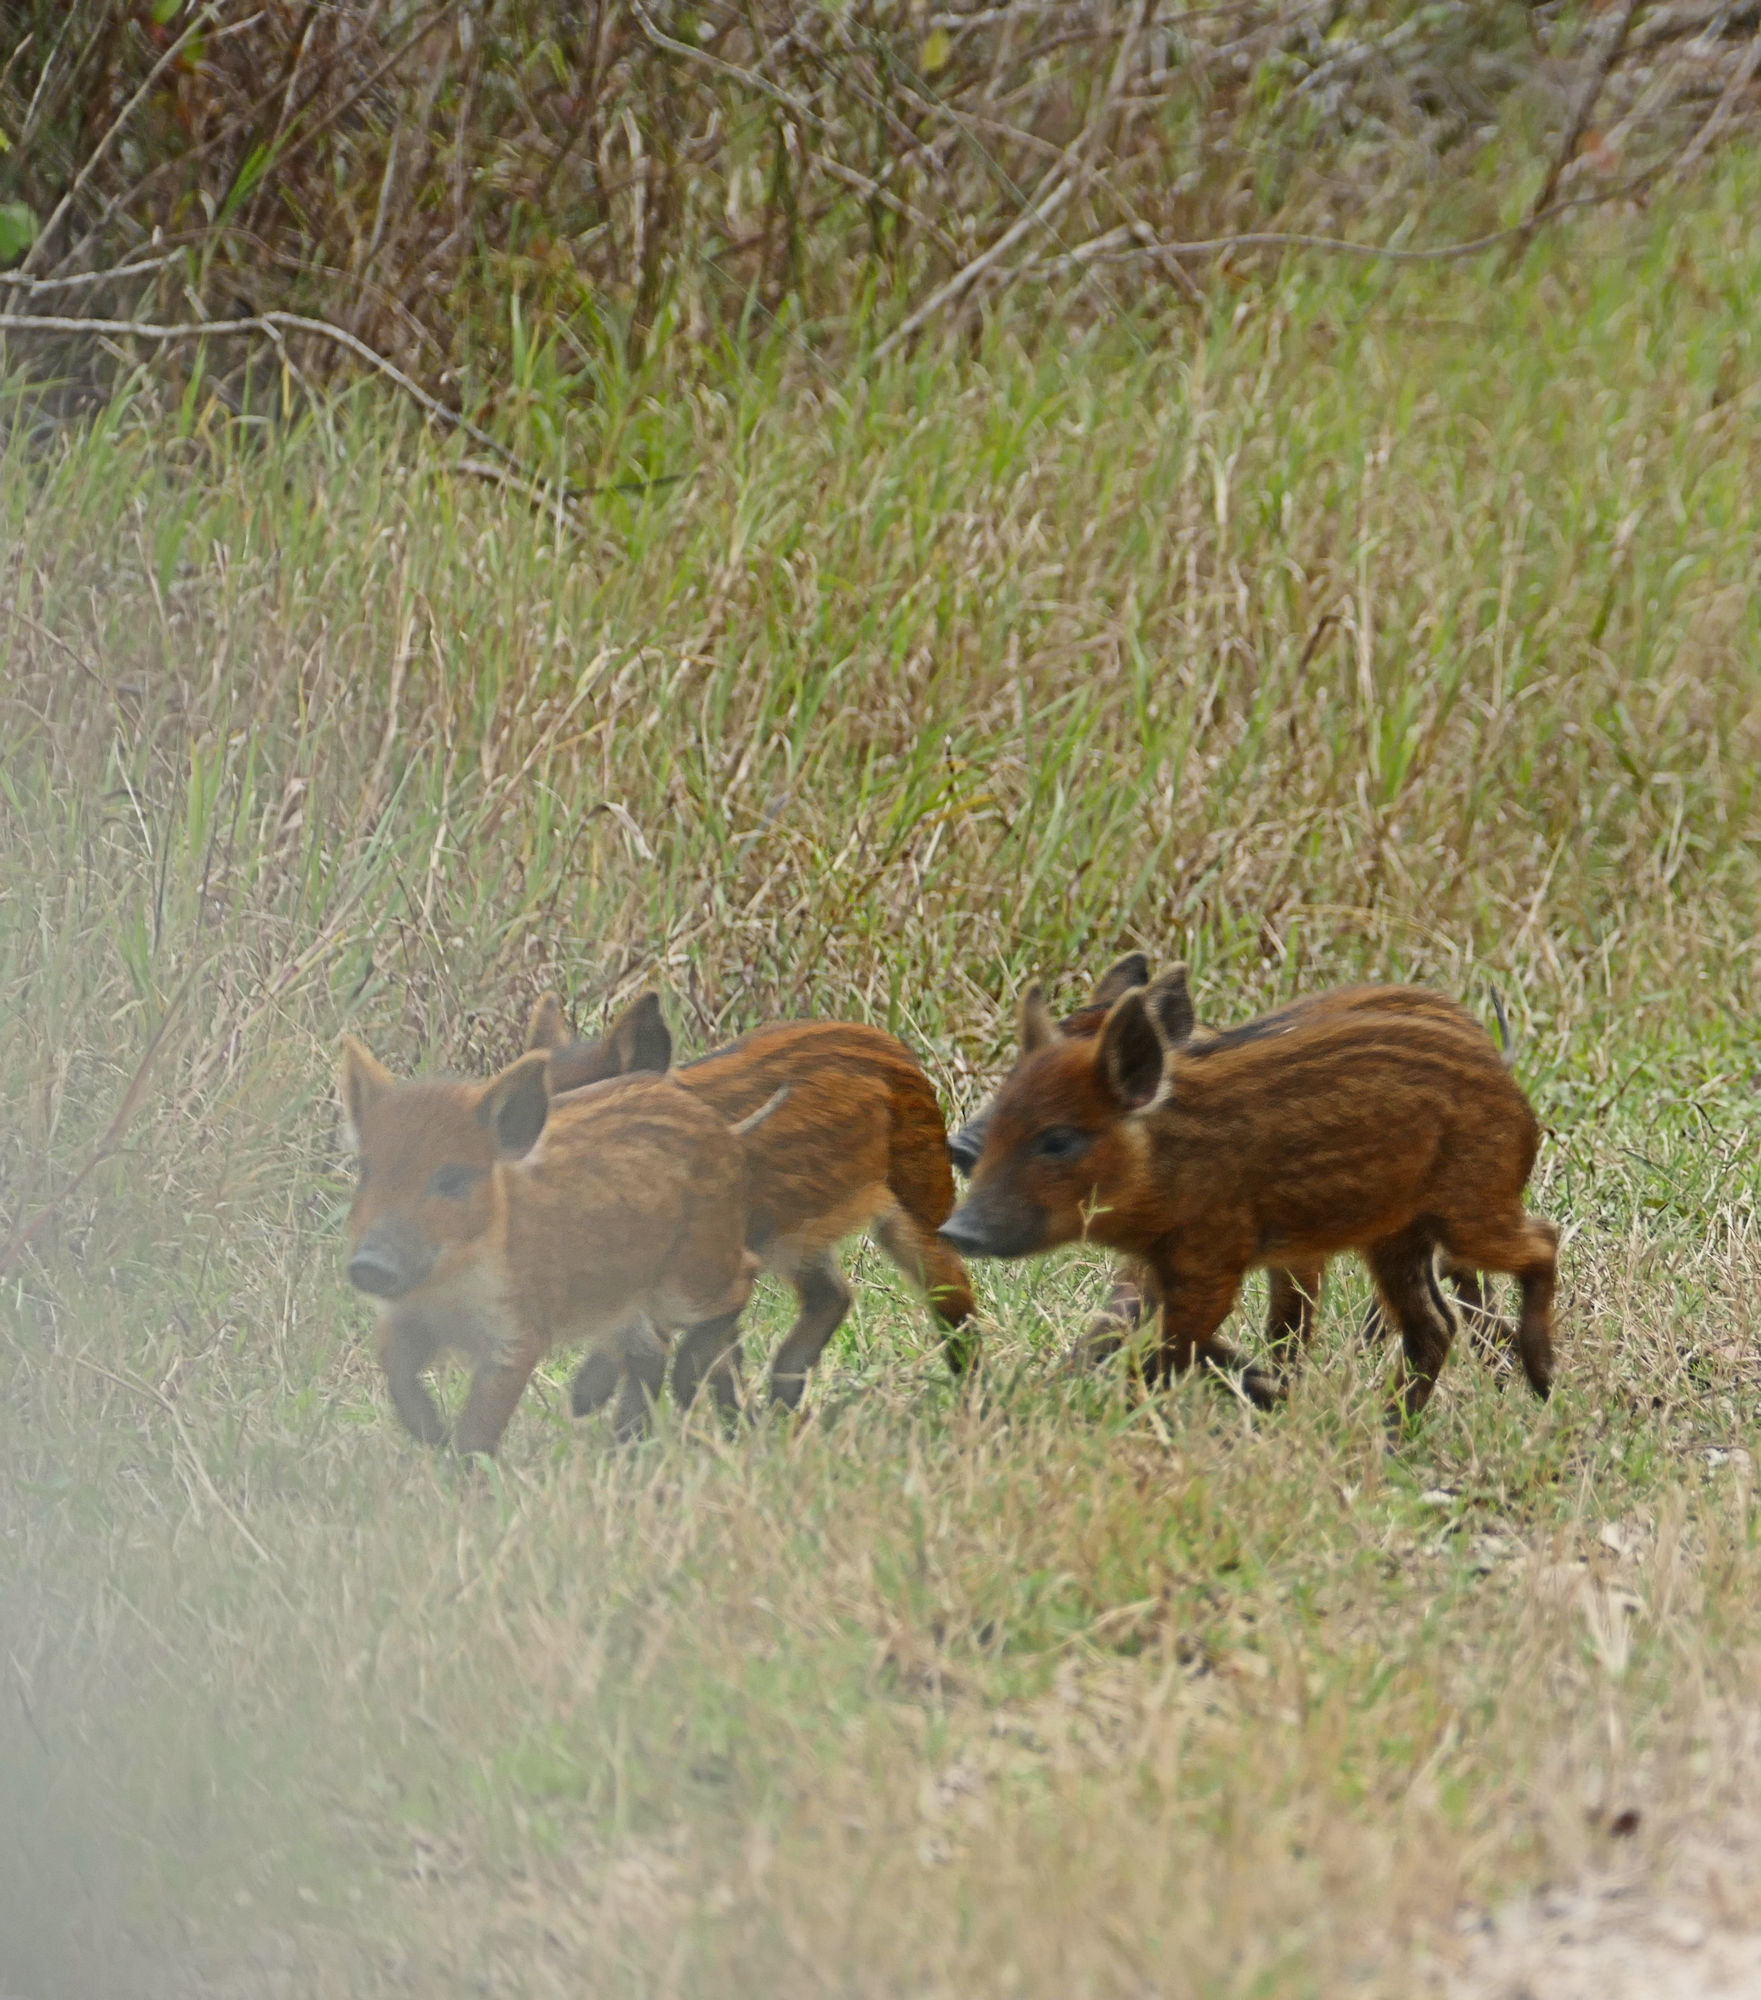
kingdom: Animalia
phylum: Chordata
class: Mammalia
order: Artiodactyla
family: Suidae
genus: Sus
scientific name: Sus scrofa
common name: Wild boar
